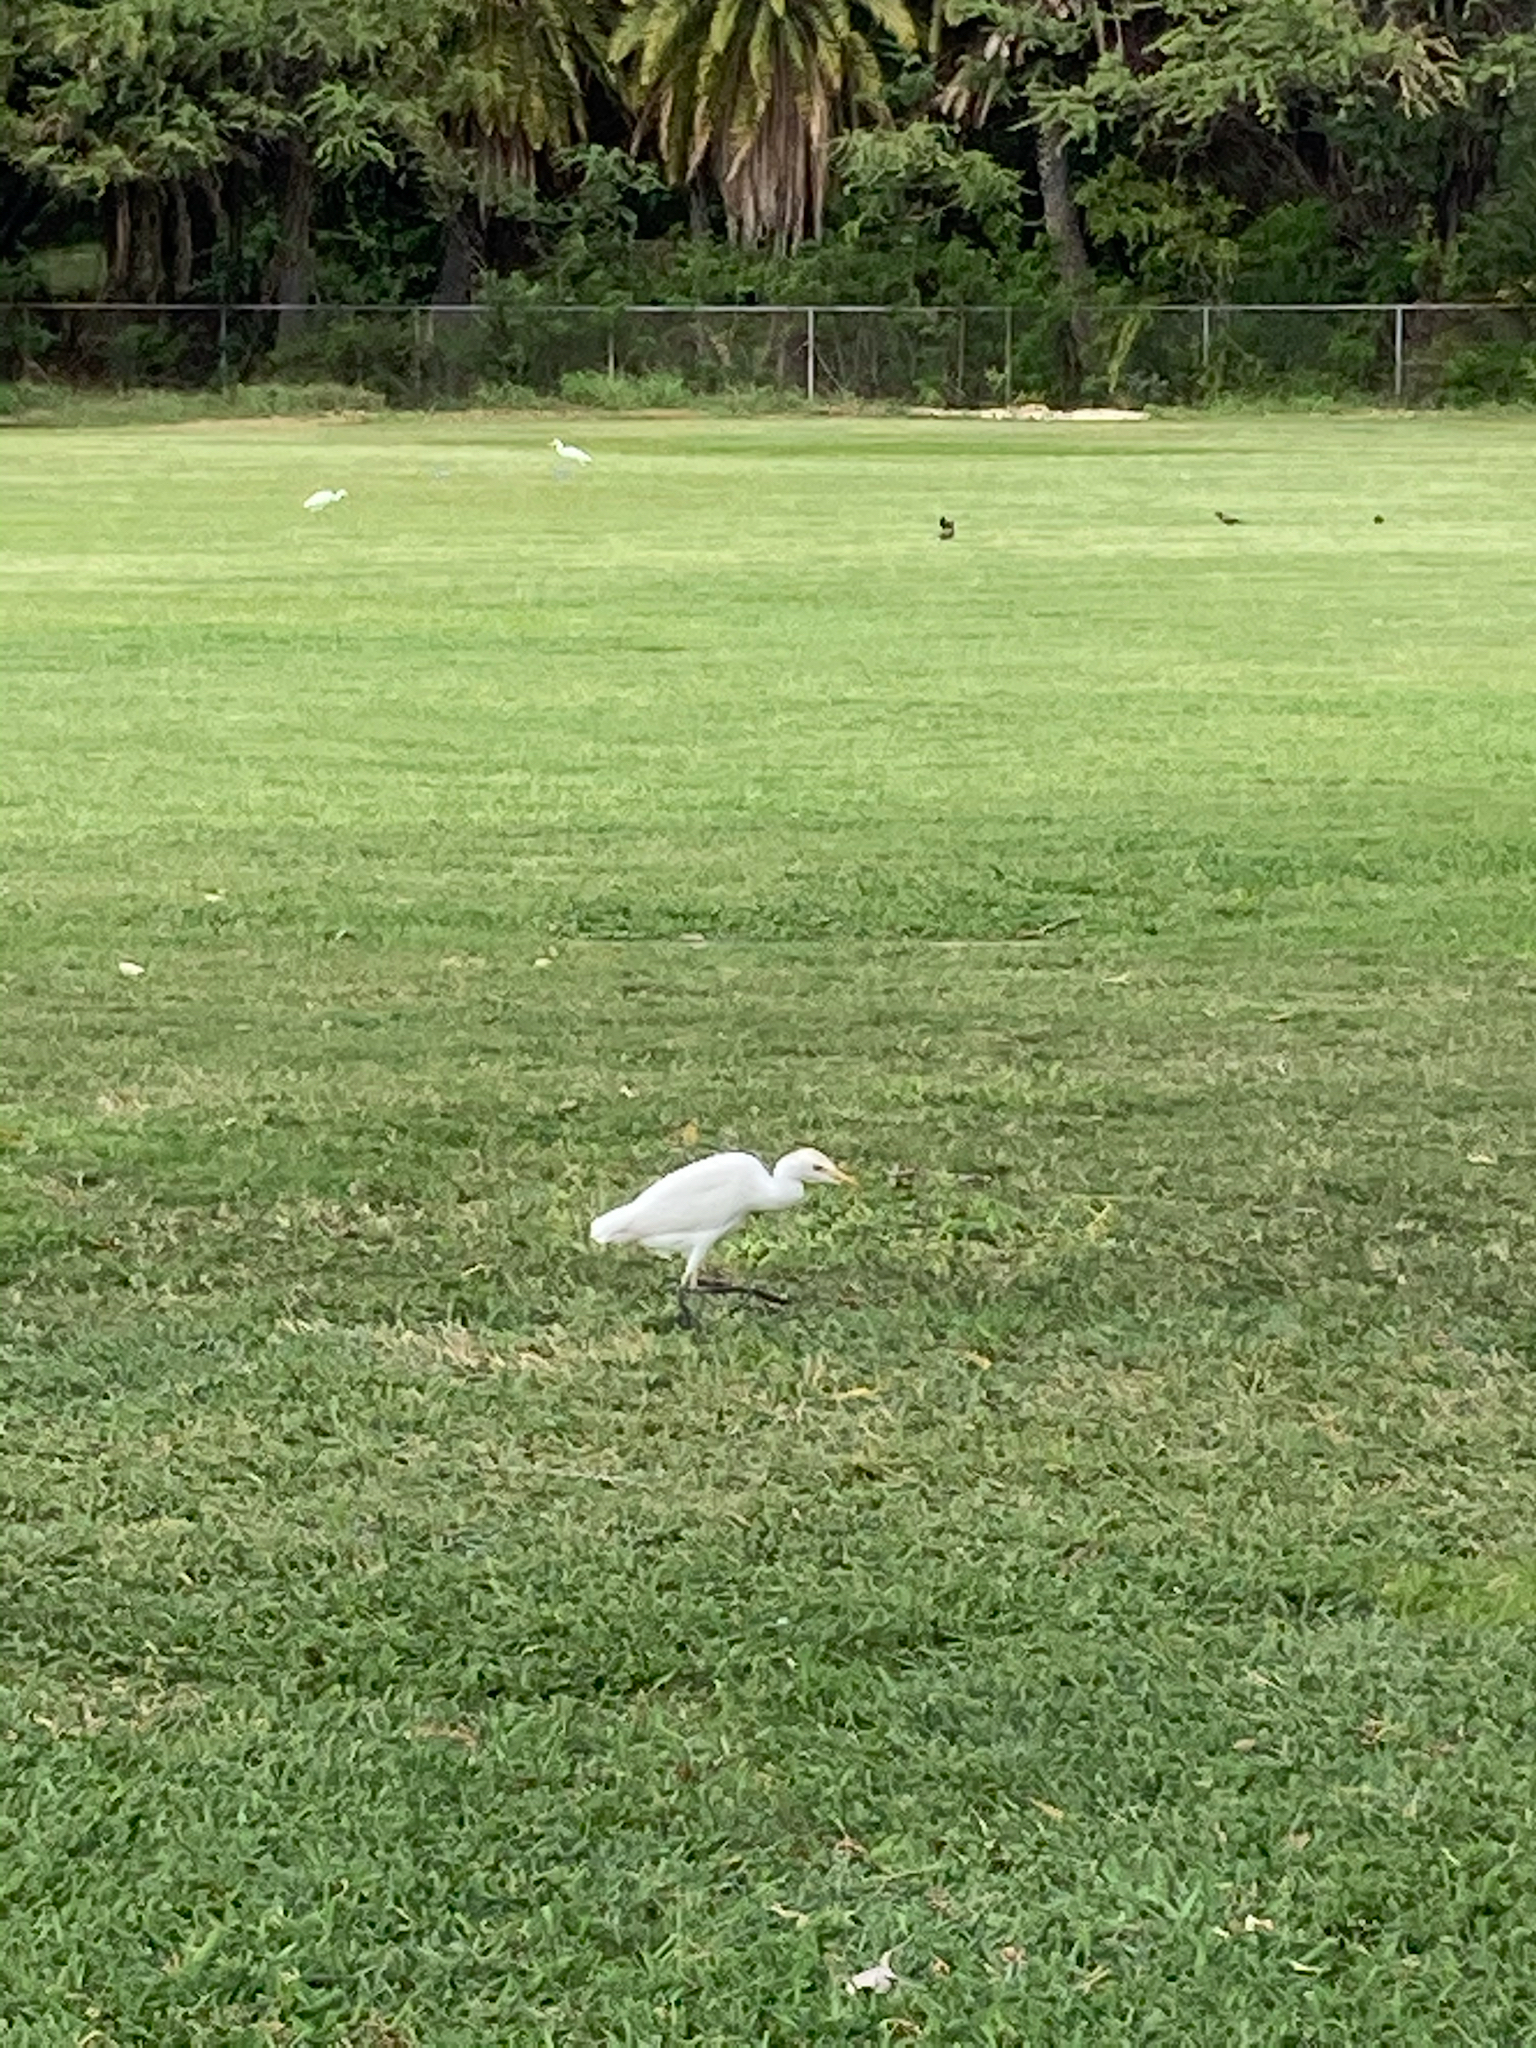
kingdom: Animalia
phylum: Chordata
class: Aves
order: Pelecaniformes
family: Ardeidae
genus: Bubulcus
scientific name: Bubulcus ibis
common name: Cattle egret
